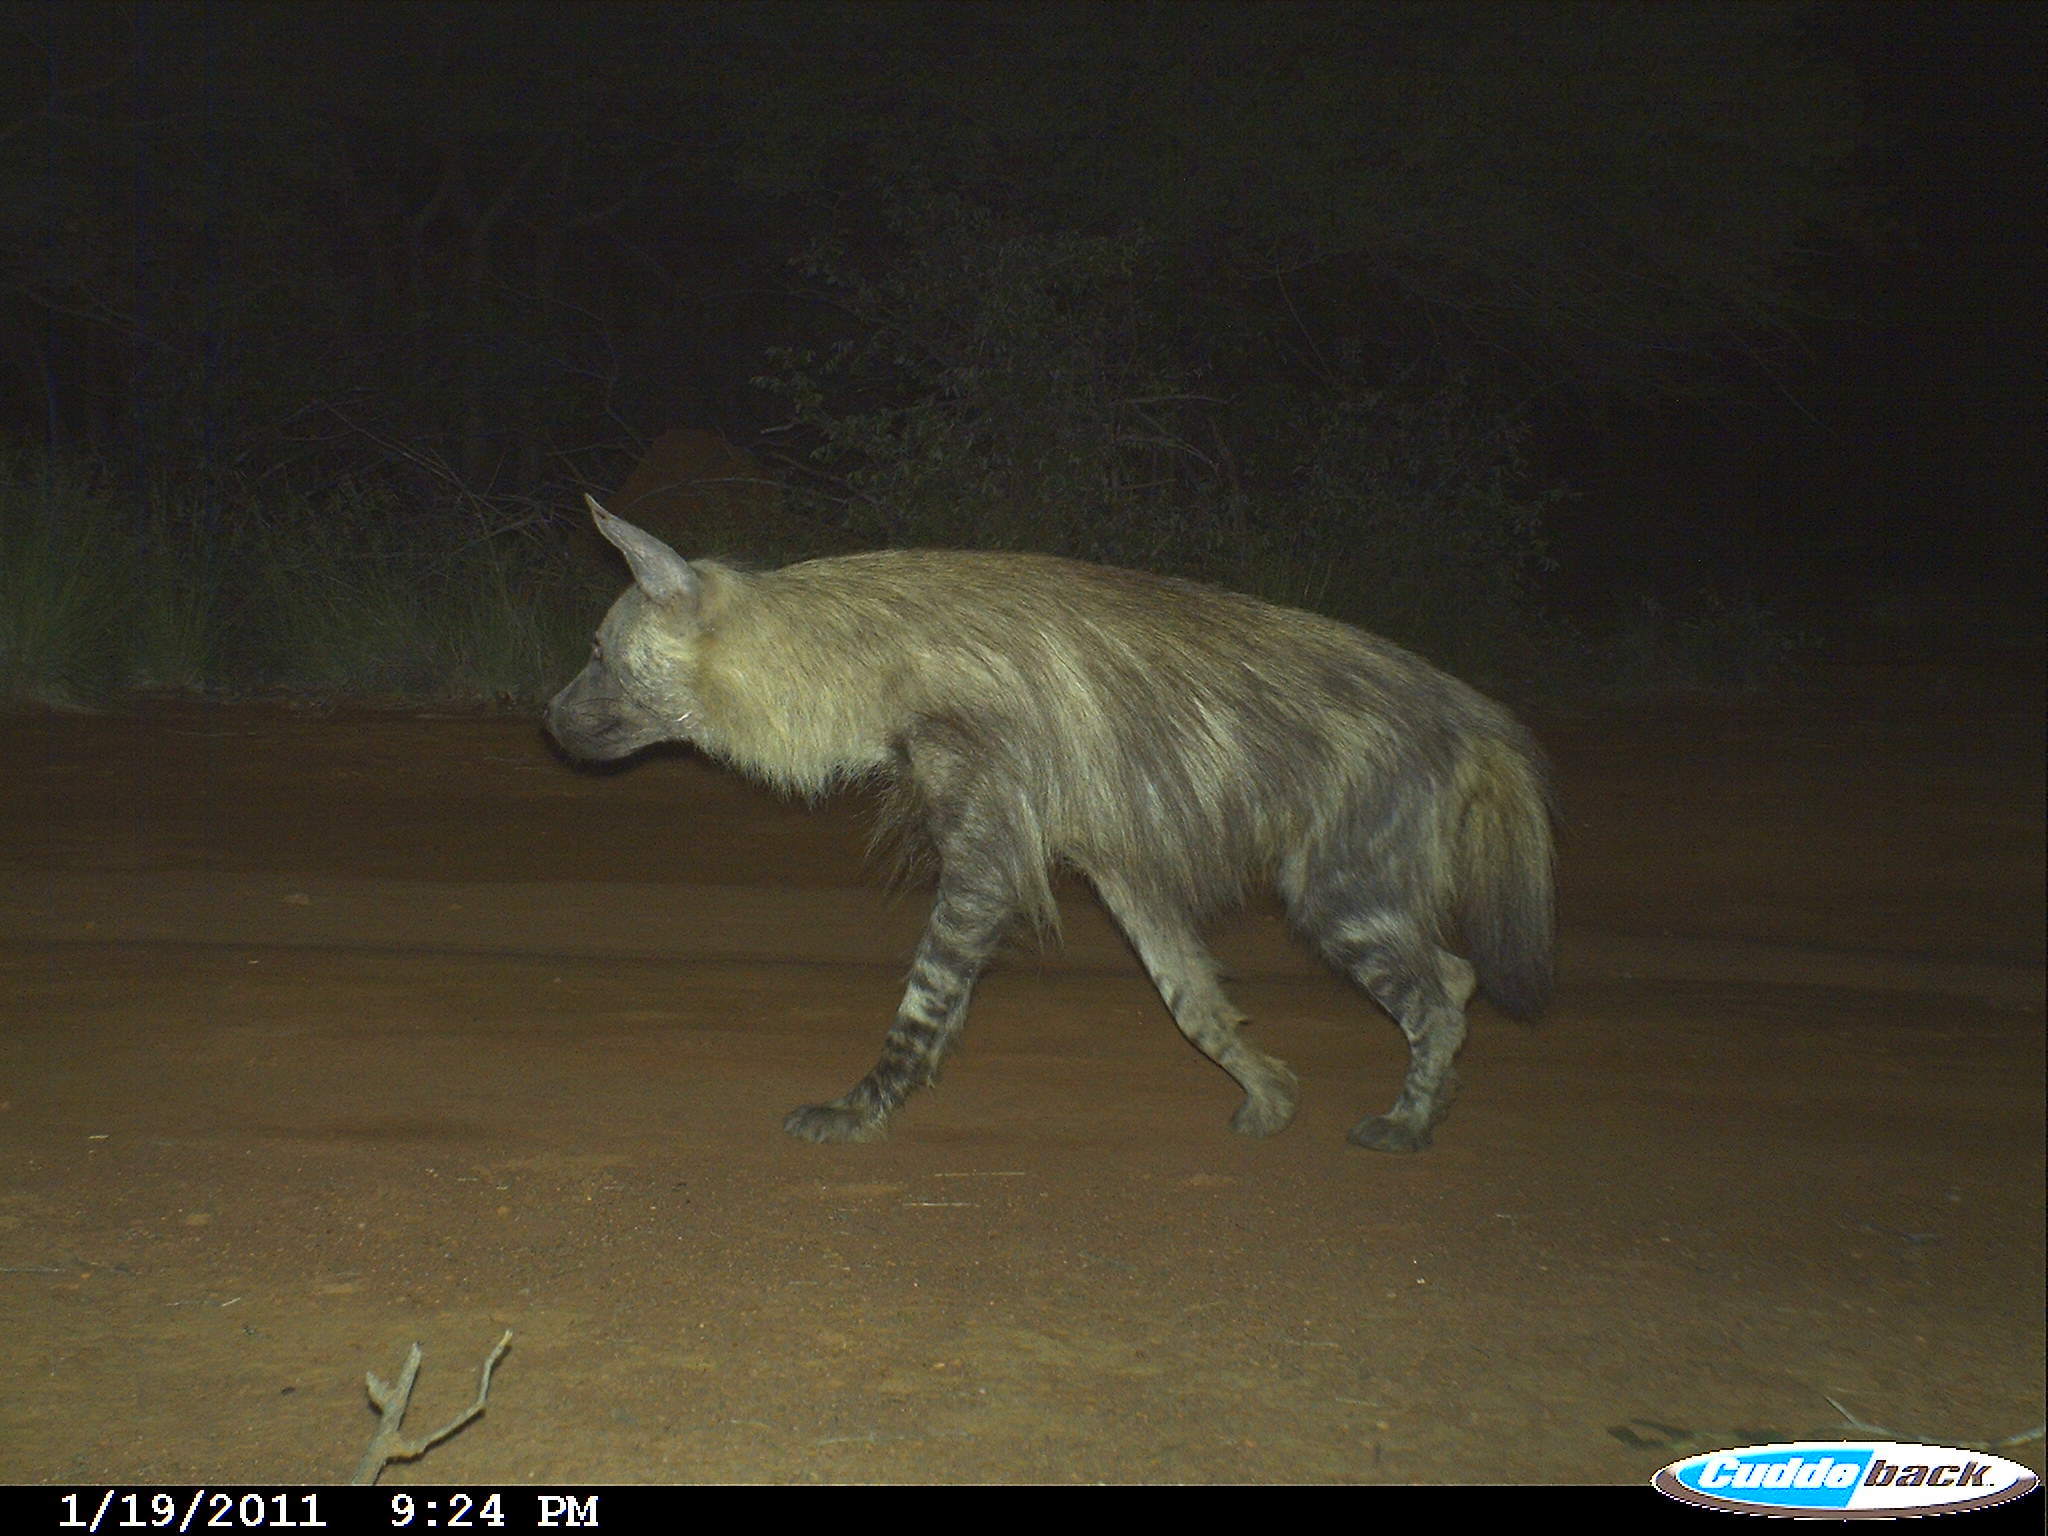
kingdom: Animalia
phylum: Chordata
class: Mammalia
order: Carnivora
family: Hyaenidae
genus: Hyaena
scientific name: Hyaena brunnea
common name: Brown hyena
